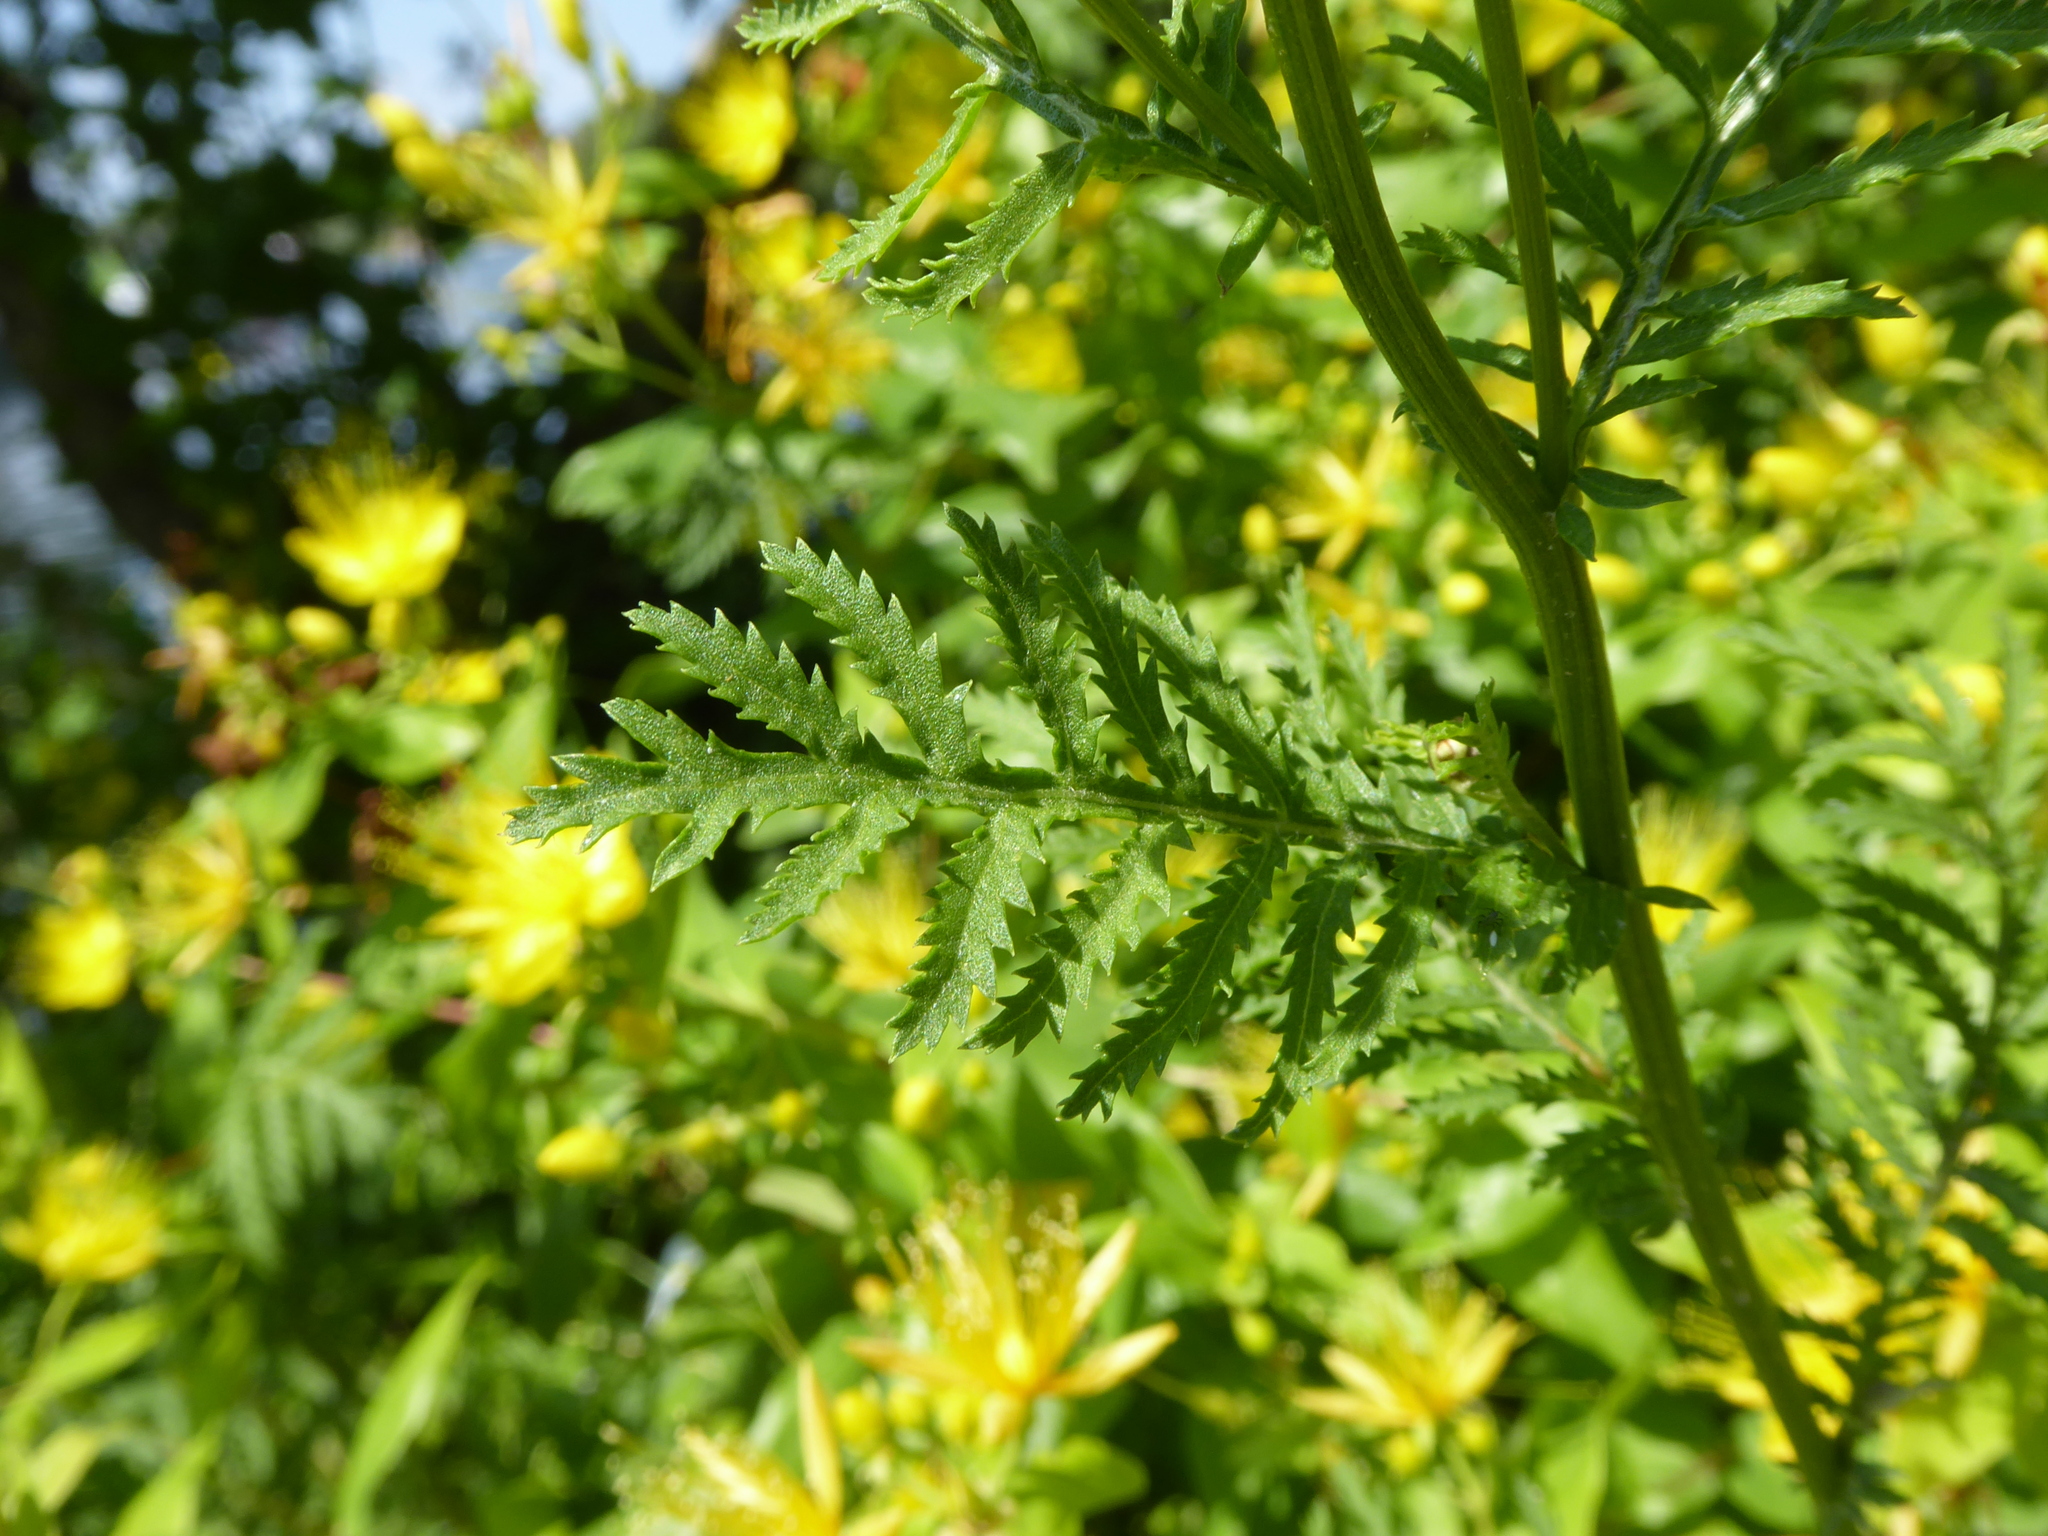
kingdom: Plantae
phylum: Tracheophyta
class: Magnoliopsida
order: Asterales
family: Asteraceae
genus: Tanacetum
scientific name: Tanacetum vulgare
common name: Common tansy
